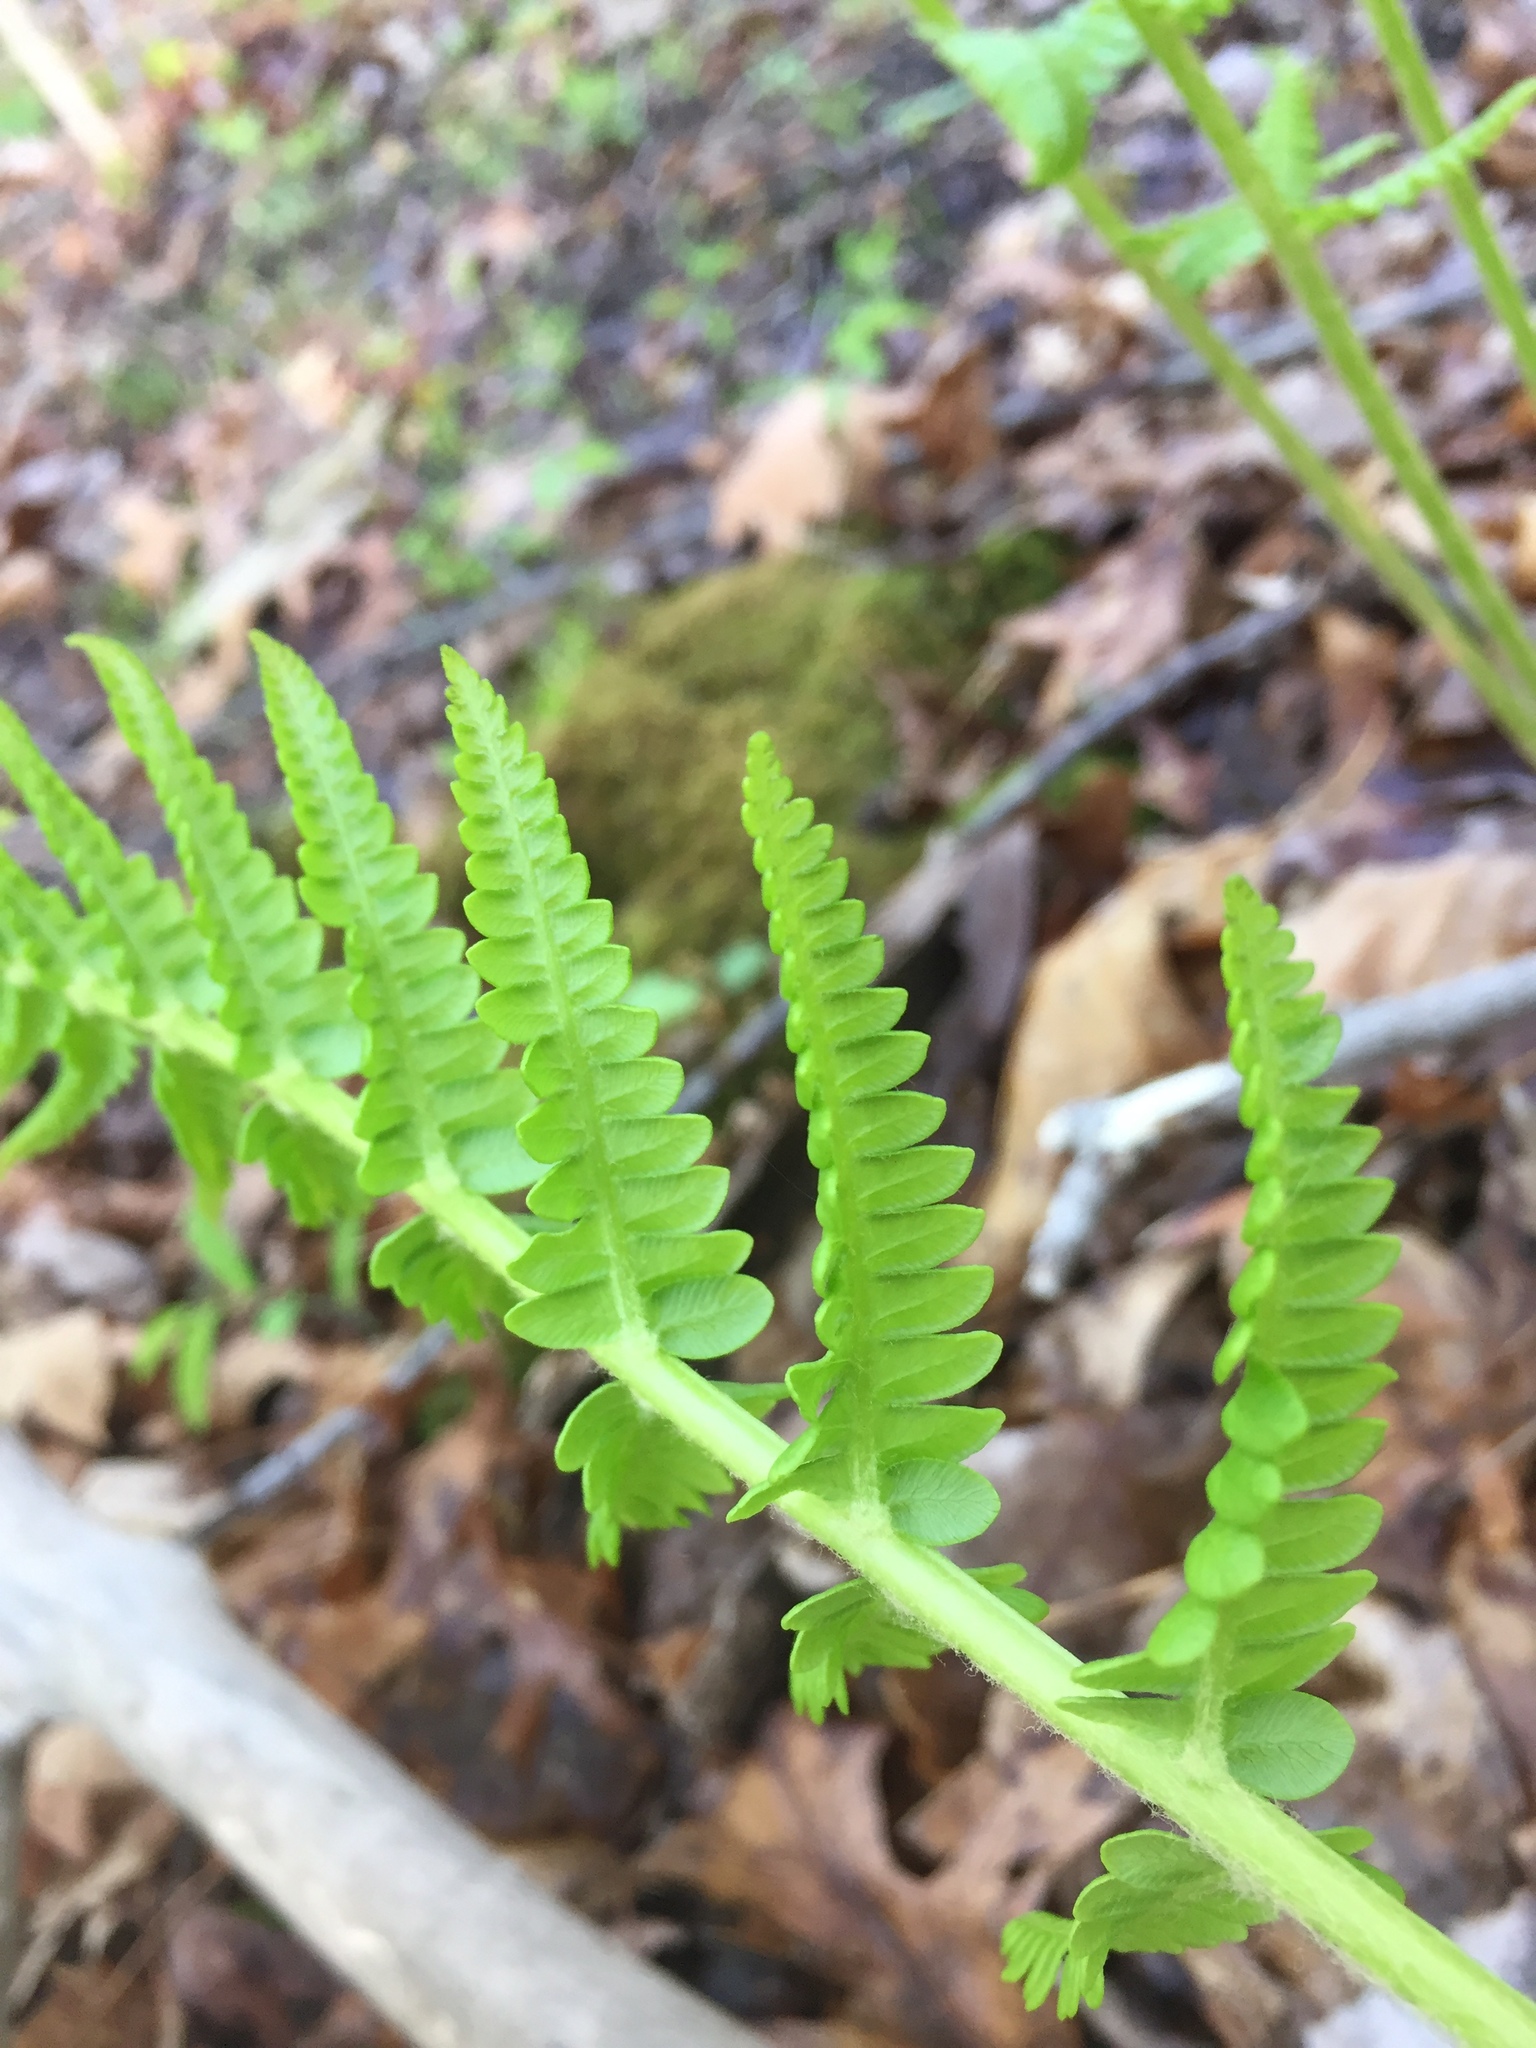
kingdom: Plantae
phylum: Tracheophyta
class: Polypodiopsida
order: Osmundales
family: Osmundaceae
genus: Osmundastrum
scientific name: Osmundastrum cinnamomeum
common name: Cinnamon fern
